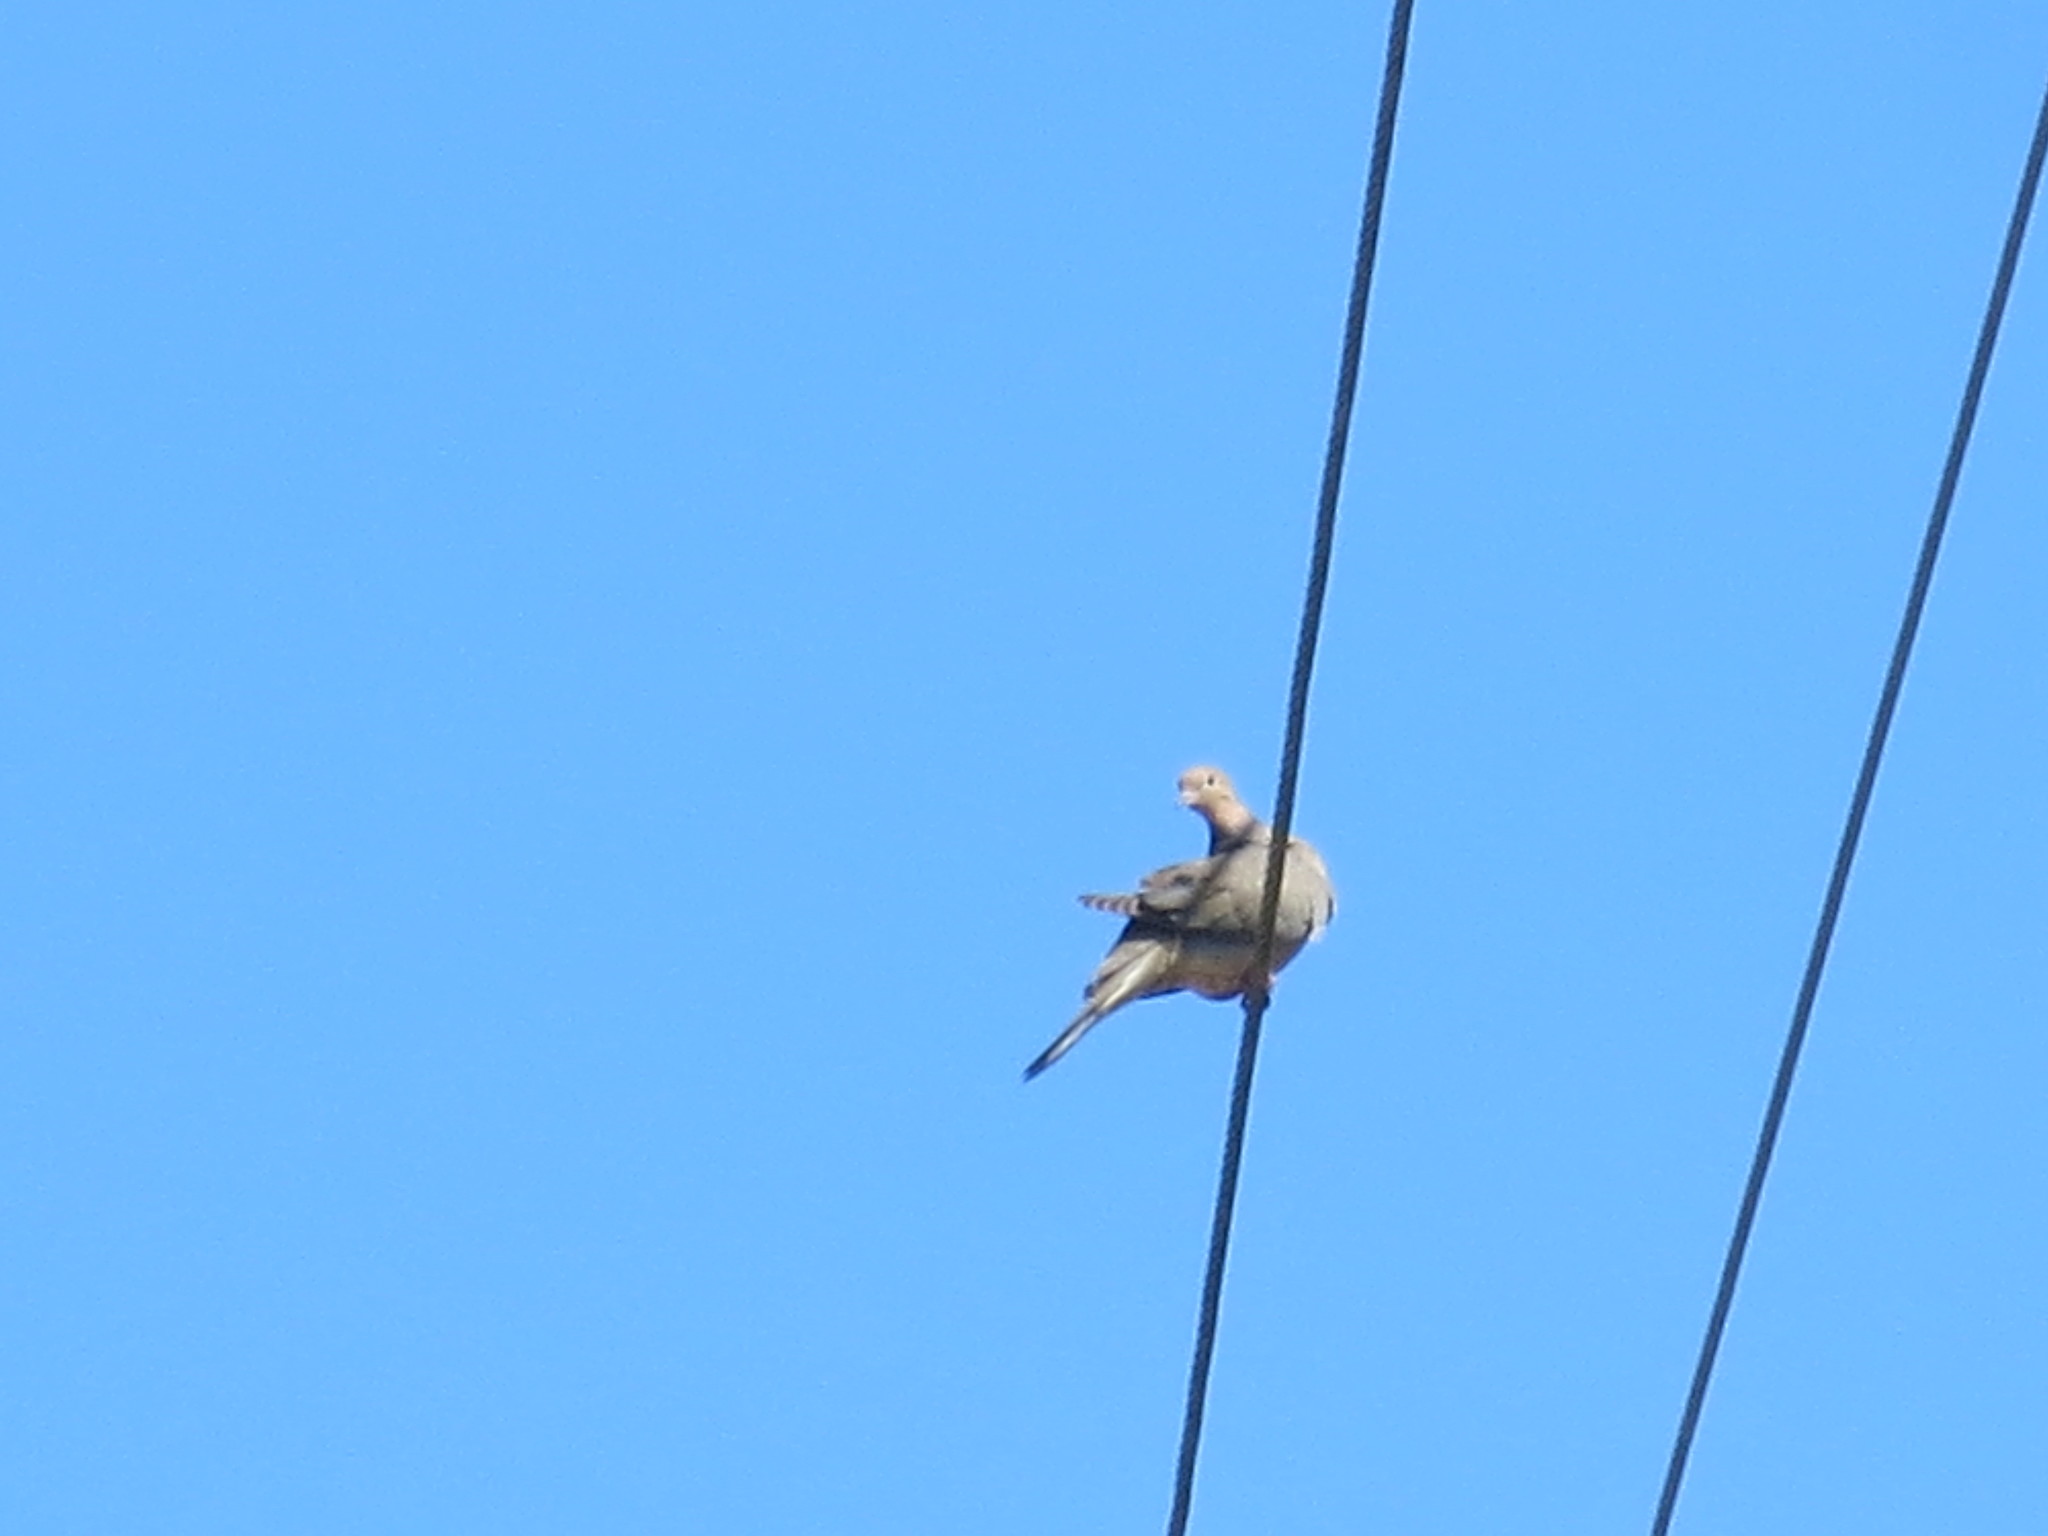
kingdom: Animalia
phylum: Chordata
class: Aves
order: Columbiformes
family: Columbidae
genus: Zenaida
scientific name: Zenaida macroura
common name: Mourning dove
